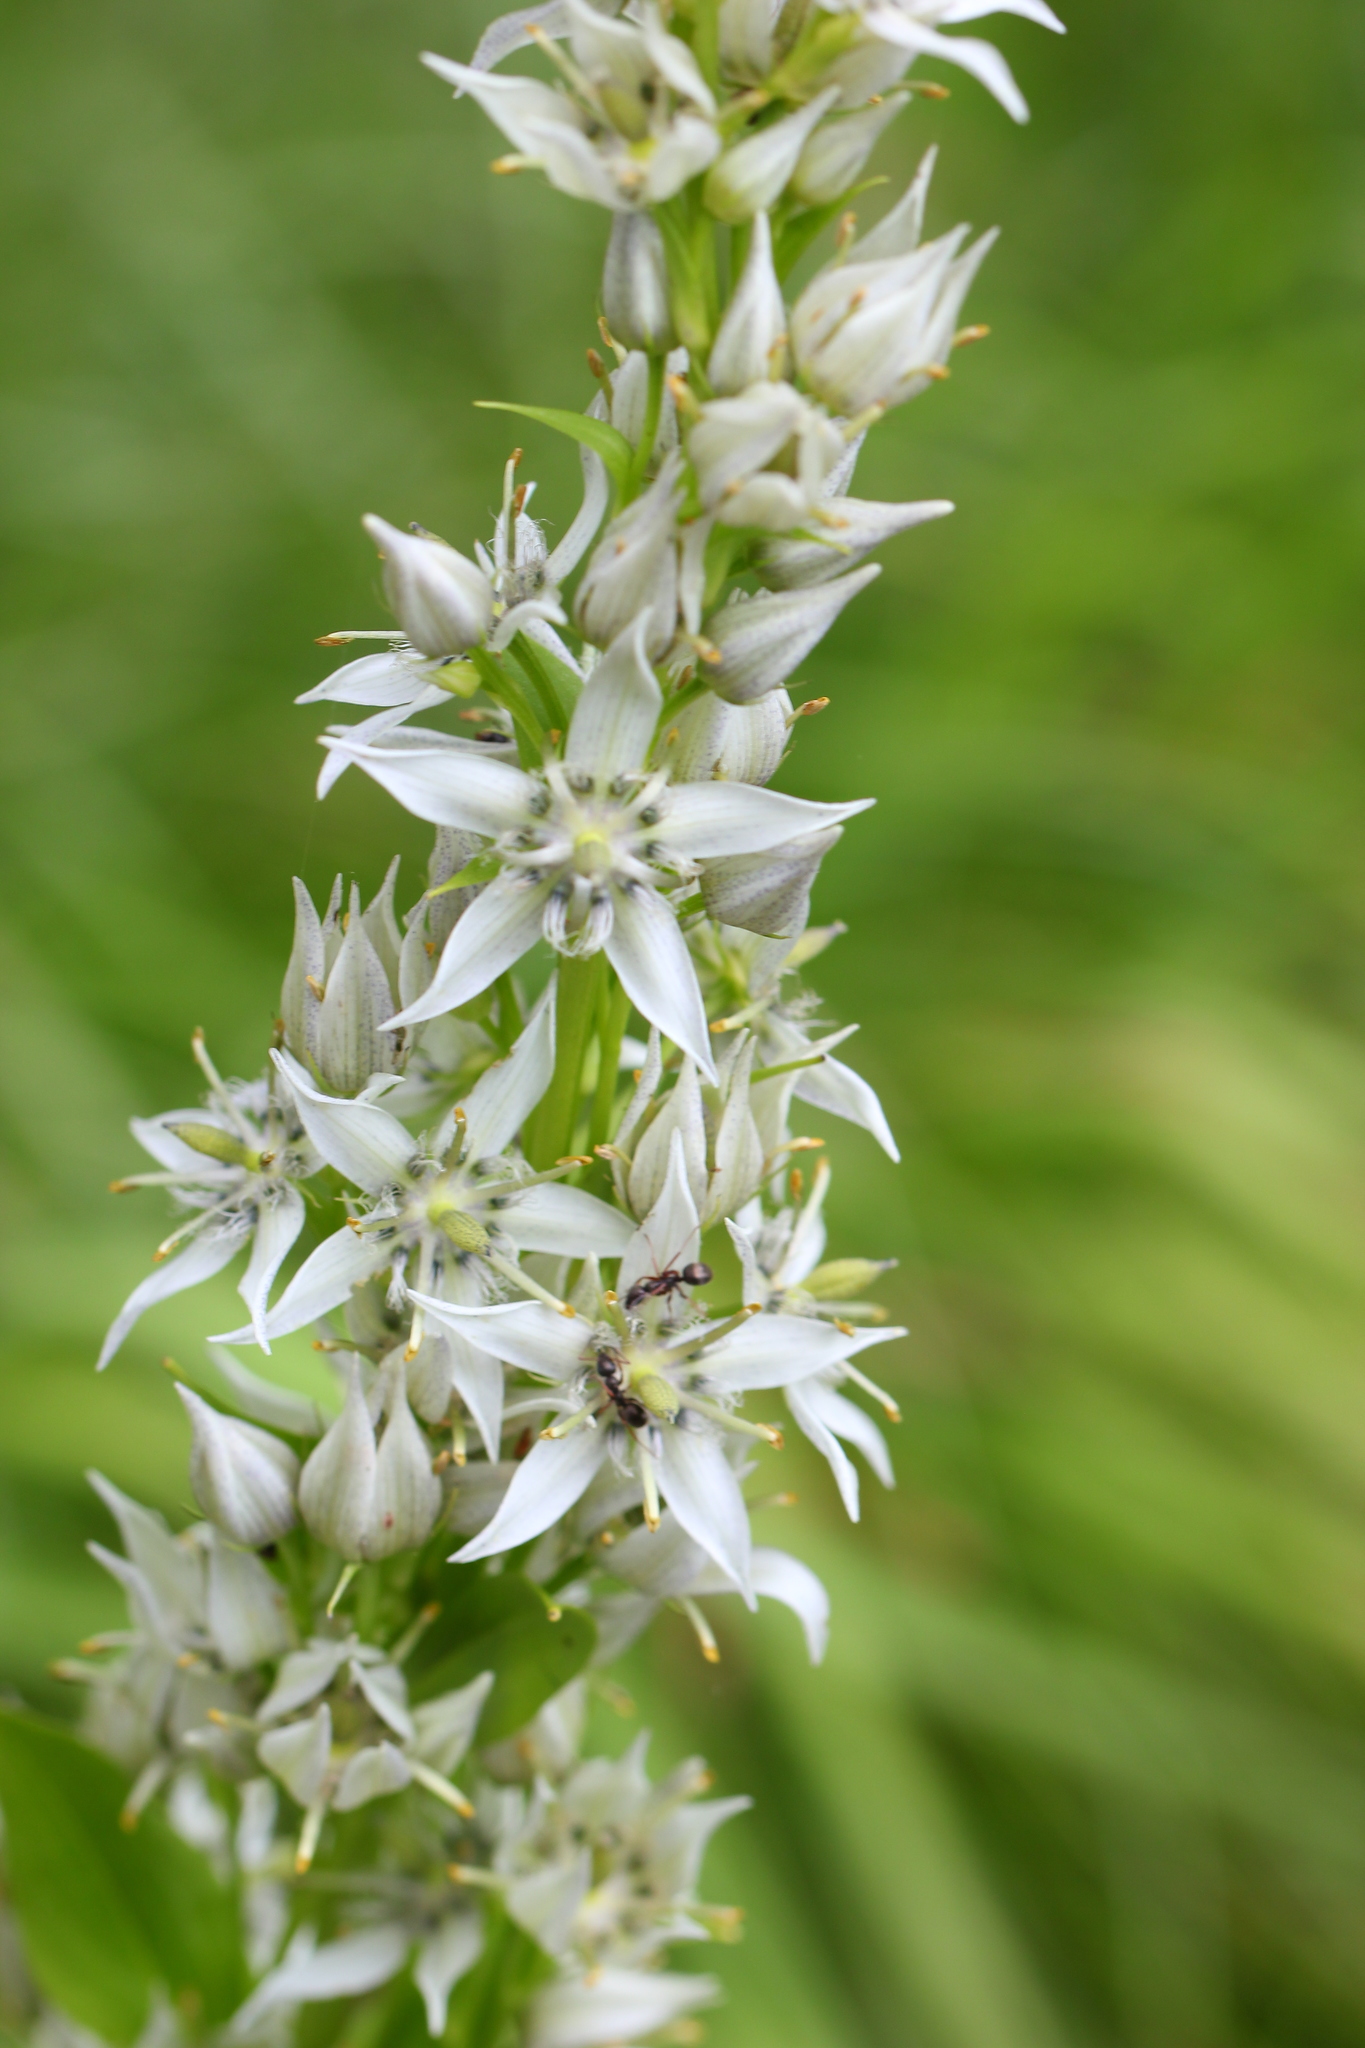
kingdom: Plantae
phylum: Tracheophyta
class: Magnoliopsida
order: Gentianales
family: Gentianaceae
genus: Swertia
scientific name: Swertia iberica
